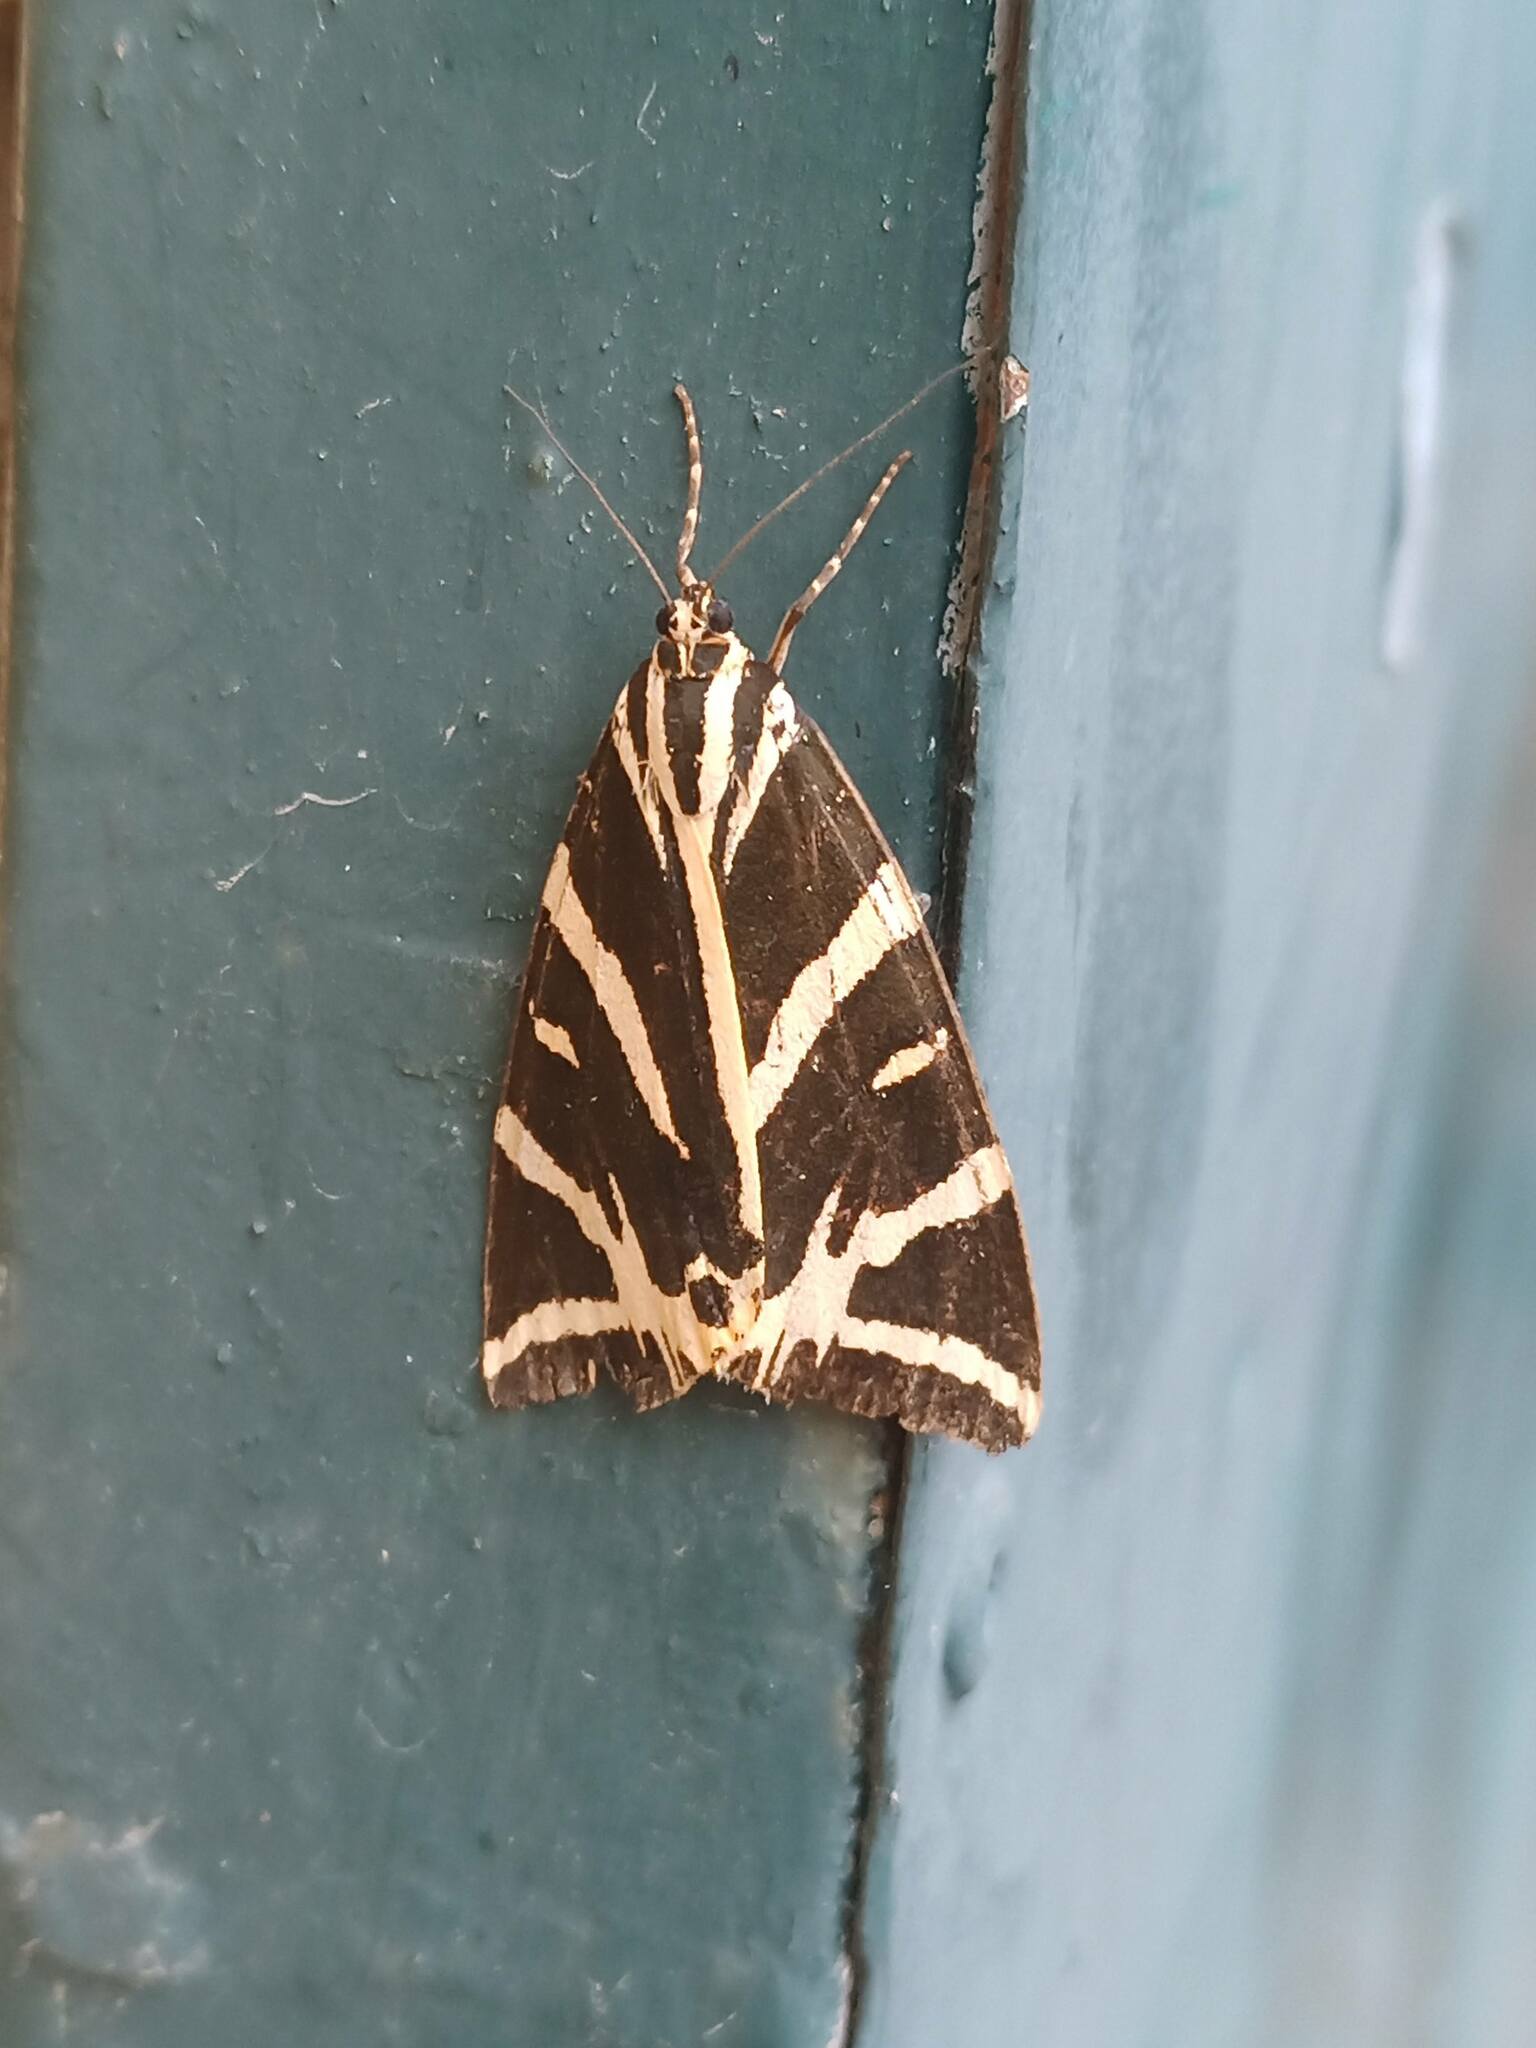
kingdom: Animalia
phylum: Arthropoda
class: Insecta
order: Lepidoptera
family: Erebidae
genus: Euplagia
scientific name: Euplagia quadripunctaria
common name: Jersey tiger
